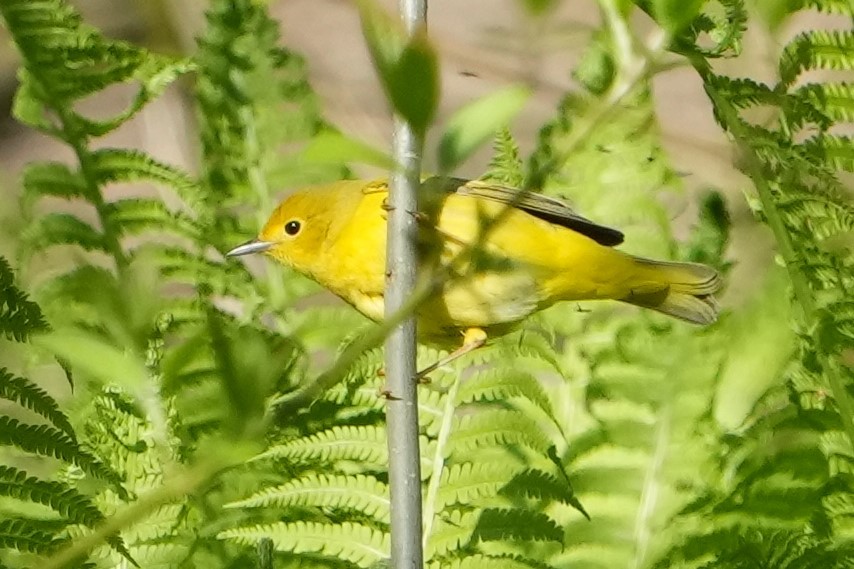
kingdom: Animalia
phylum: Chordata
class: Aves
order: Passeriformes
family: Parulidae
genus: Setophaga
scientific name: Setophaga petechia
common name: Yellow warbler
